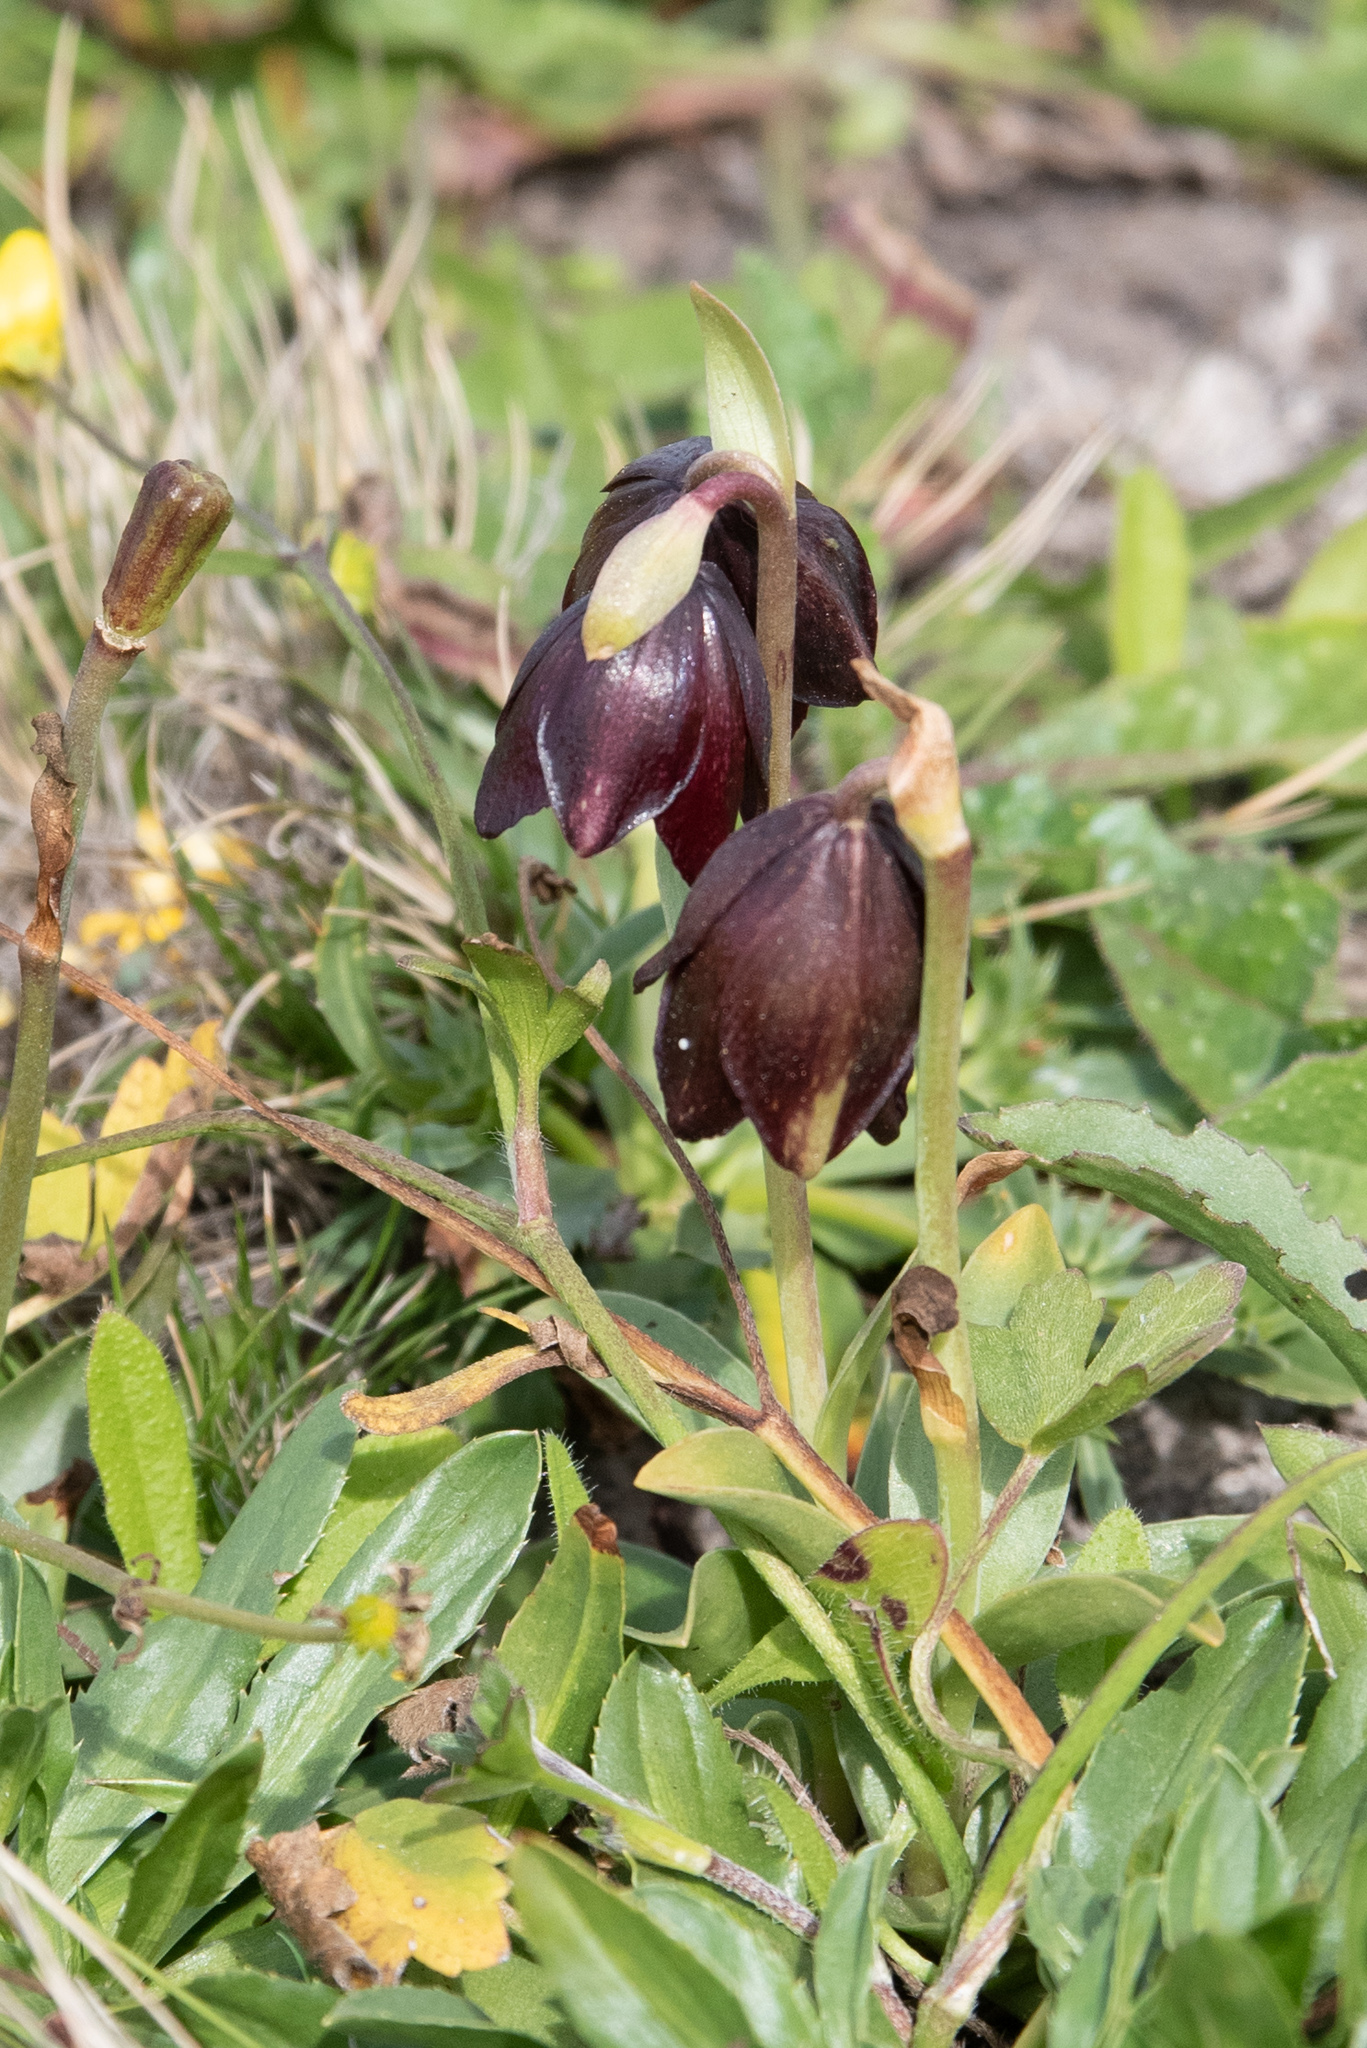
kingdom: Plantae
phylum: Tracheophyta
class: Liliopsida
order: Liliales
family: Liliaceae
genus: Fritillaria
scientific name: Fritillaria biflora
